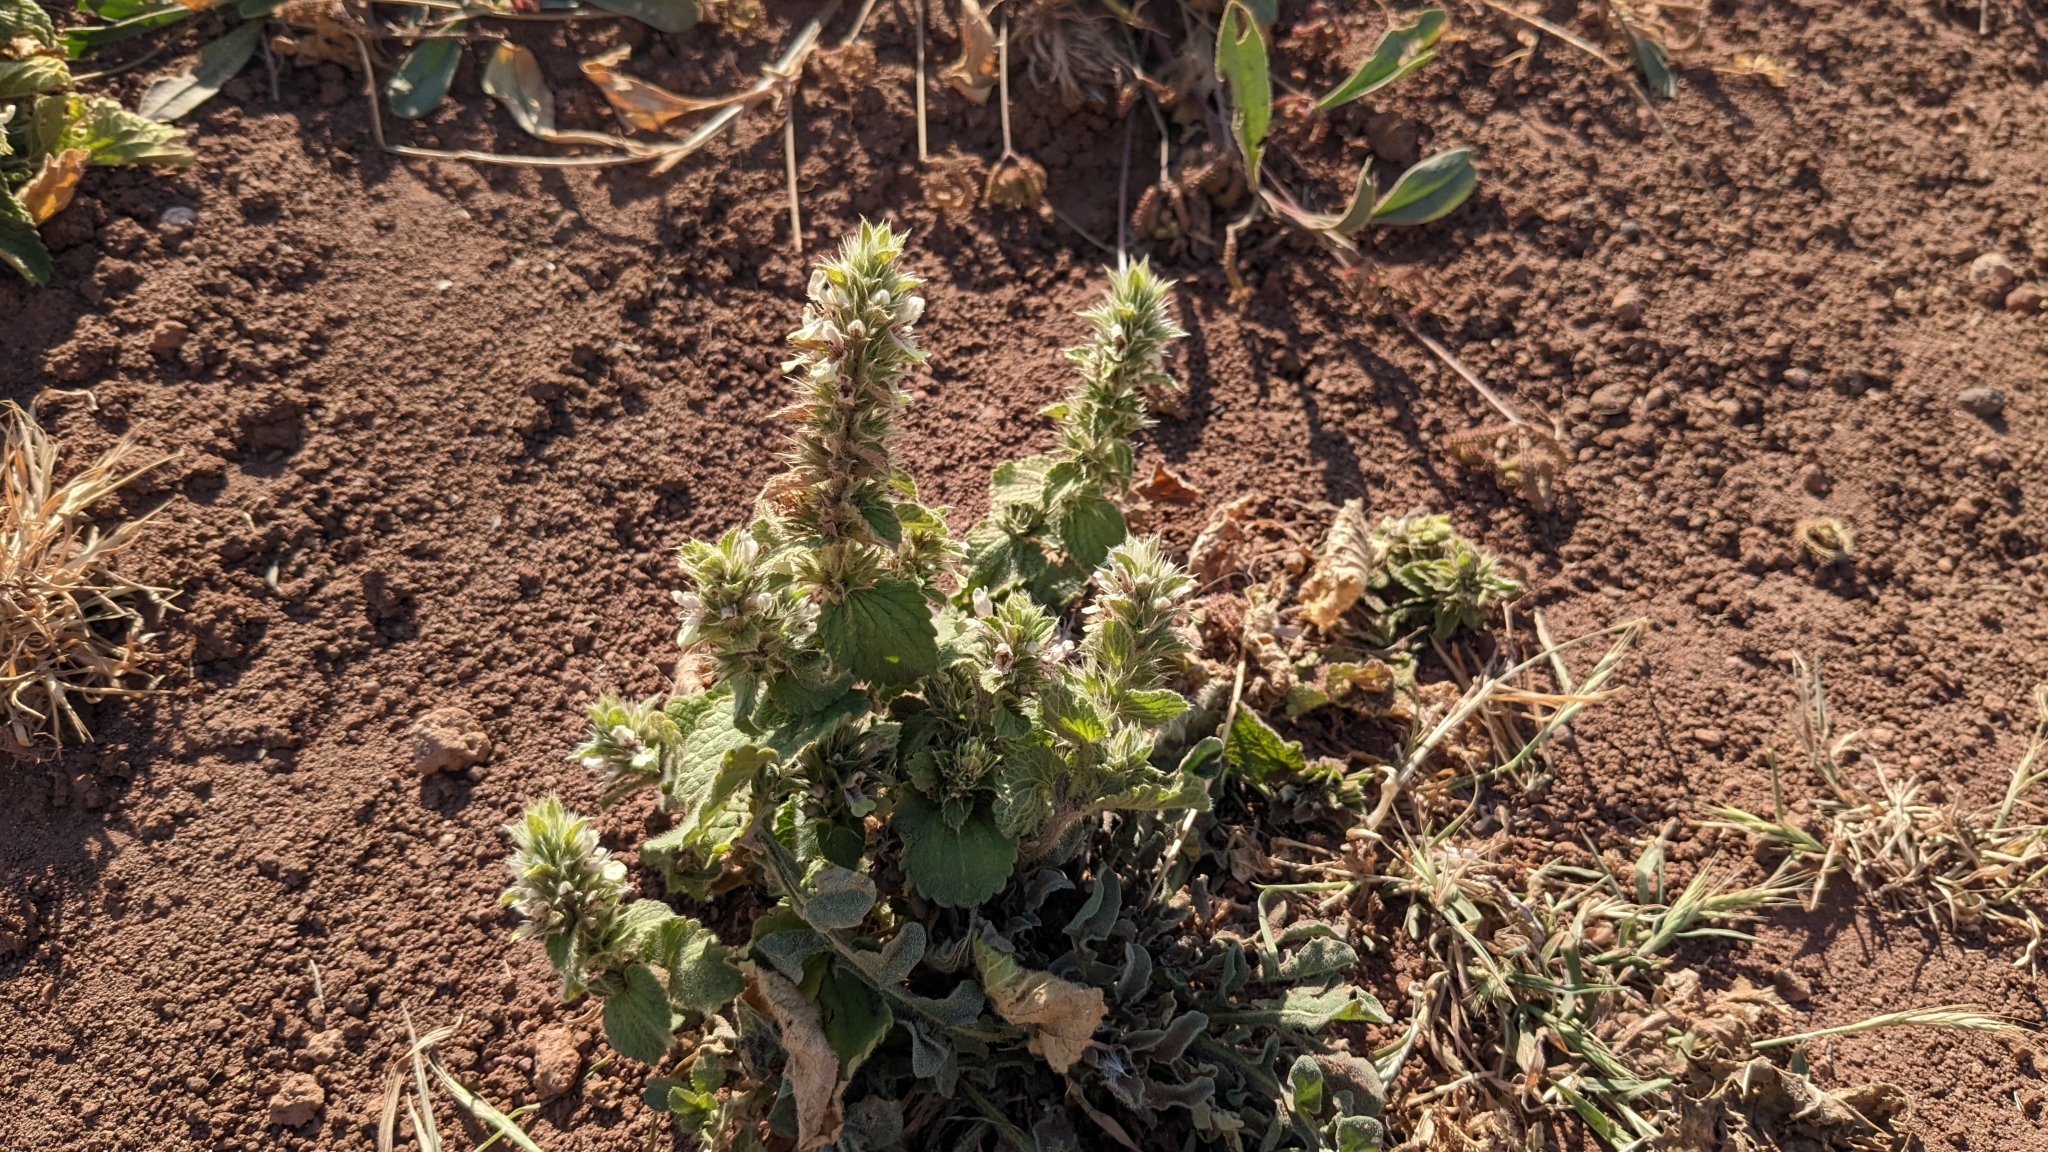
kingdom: Plantae
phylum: Tracheophyta
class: Magnoliopsida
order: Lamiales
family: Lamiaceae
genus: Stachys
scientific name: Stachys ocymastrum
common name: Italian hedgenettle
